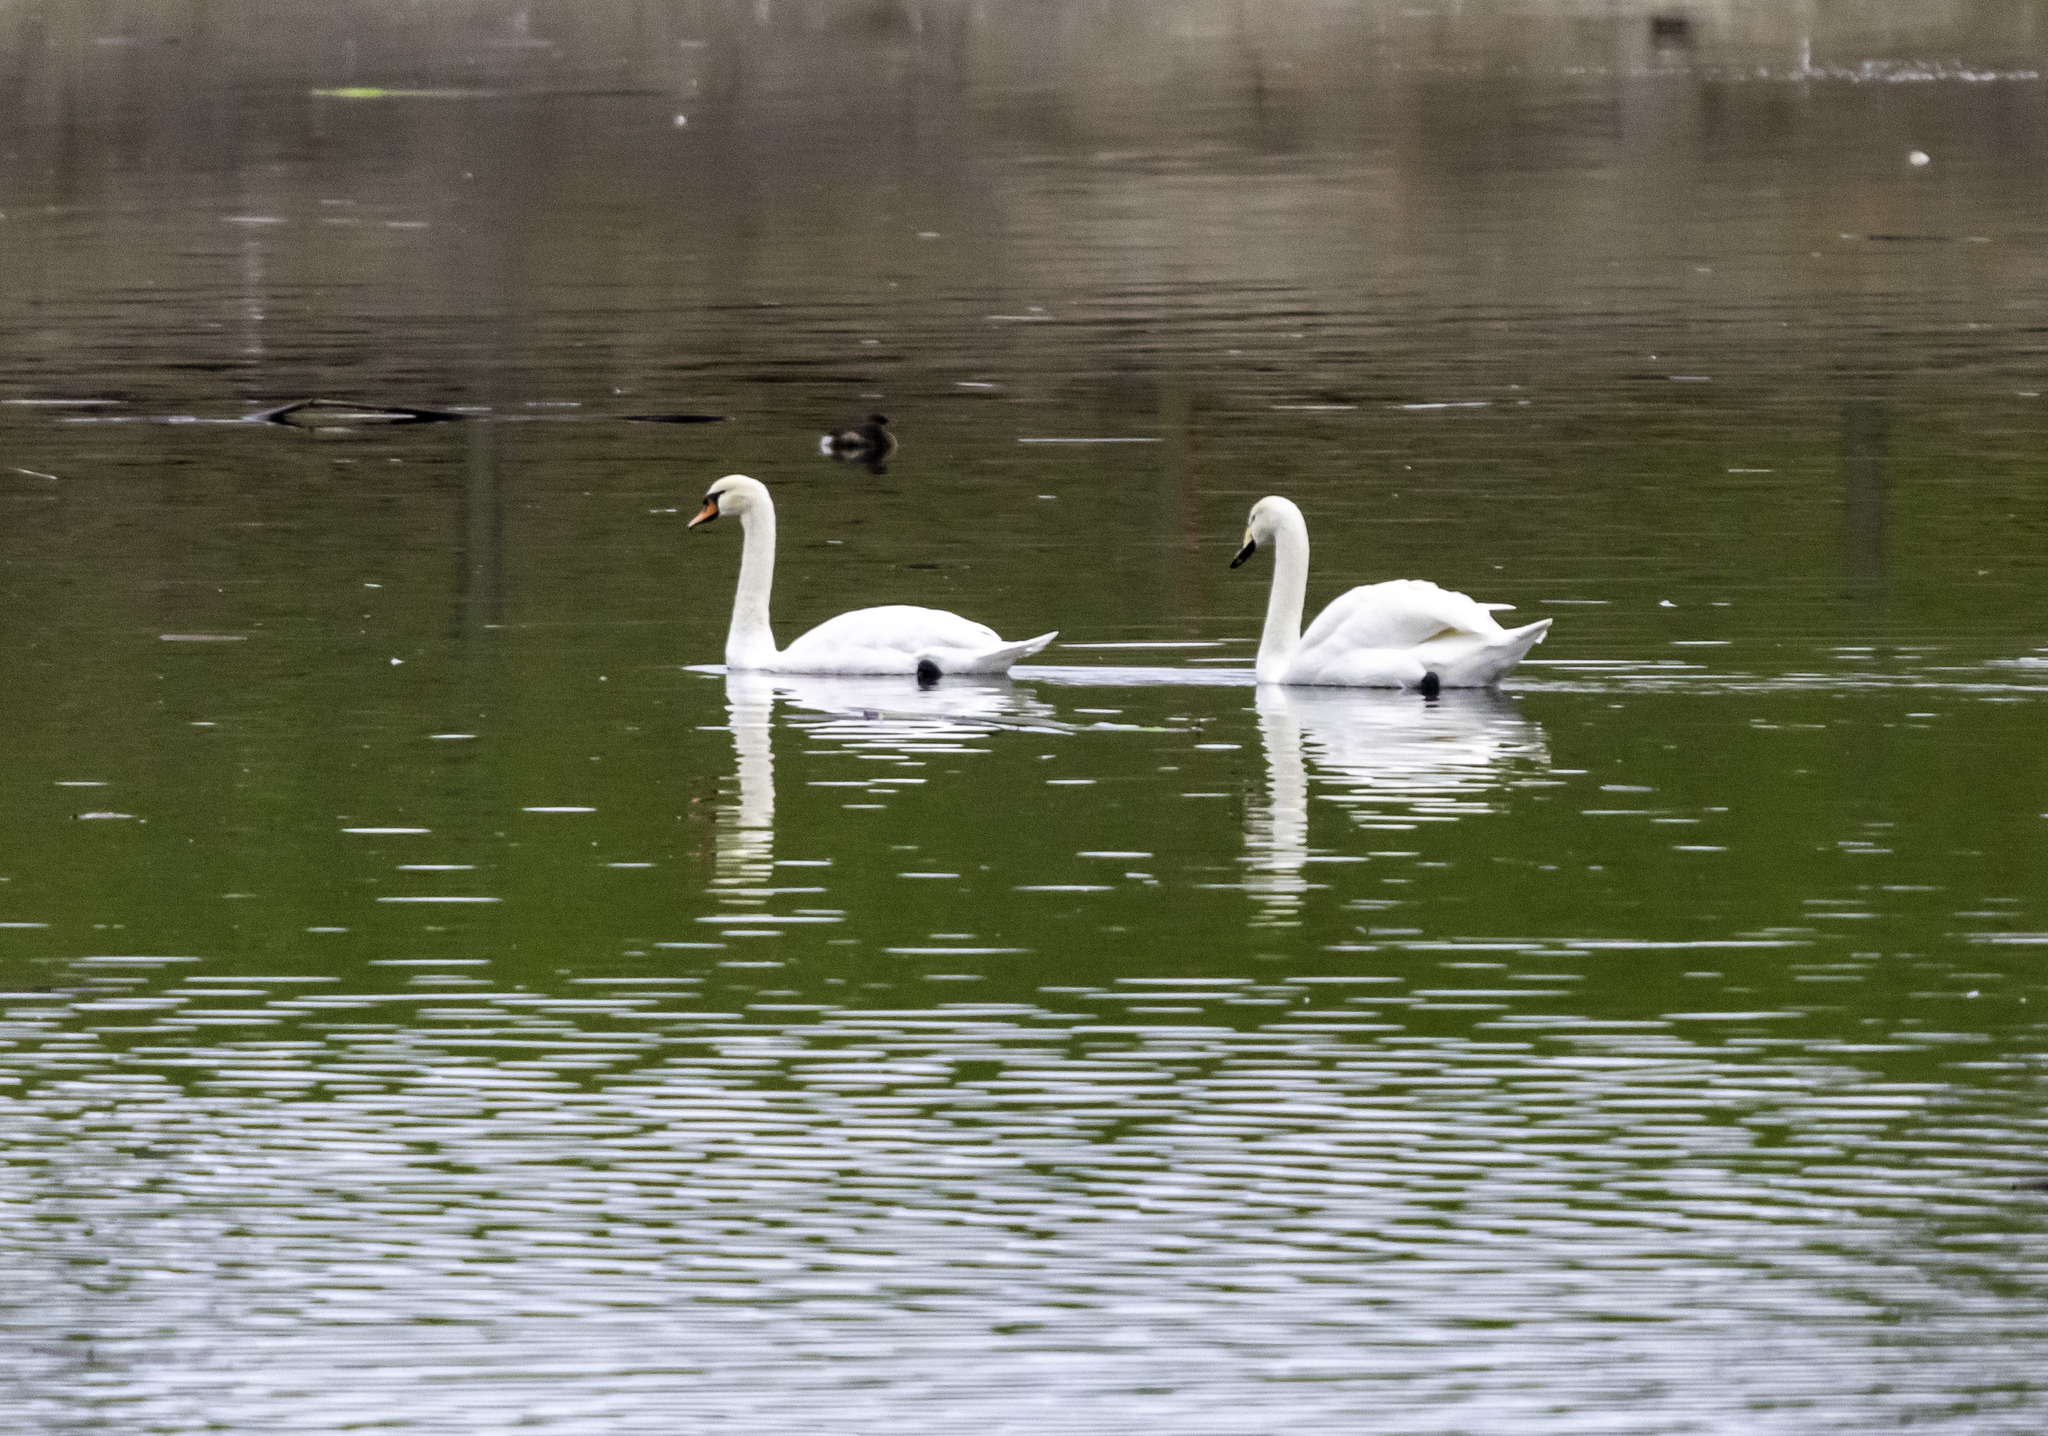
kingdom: Animalia
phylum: Chordata
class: Aves
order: Anseriformes
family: Anatidae
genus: Cygnus
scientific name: Cygnus olor
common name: Mute swan
